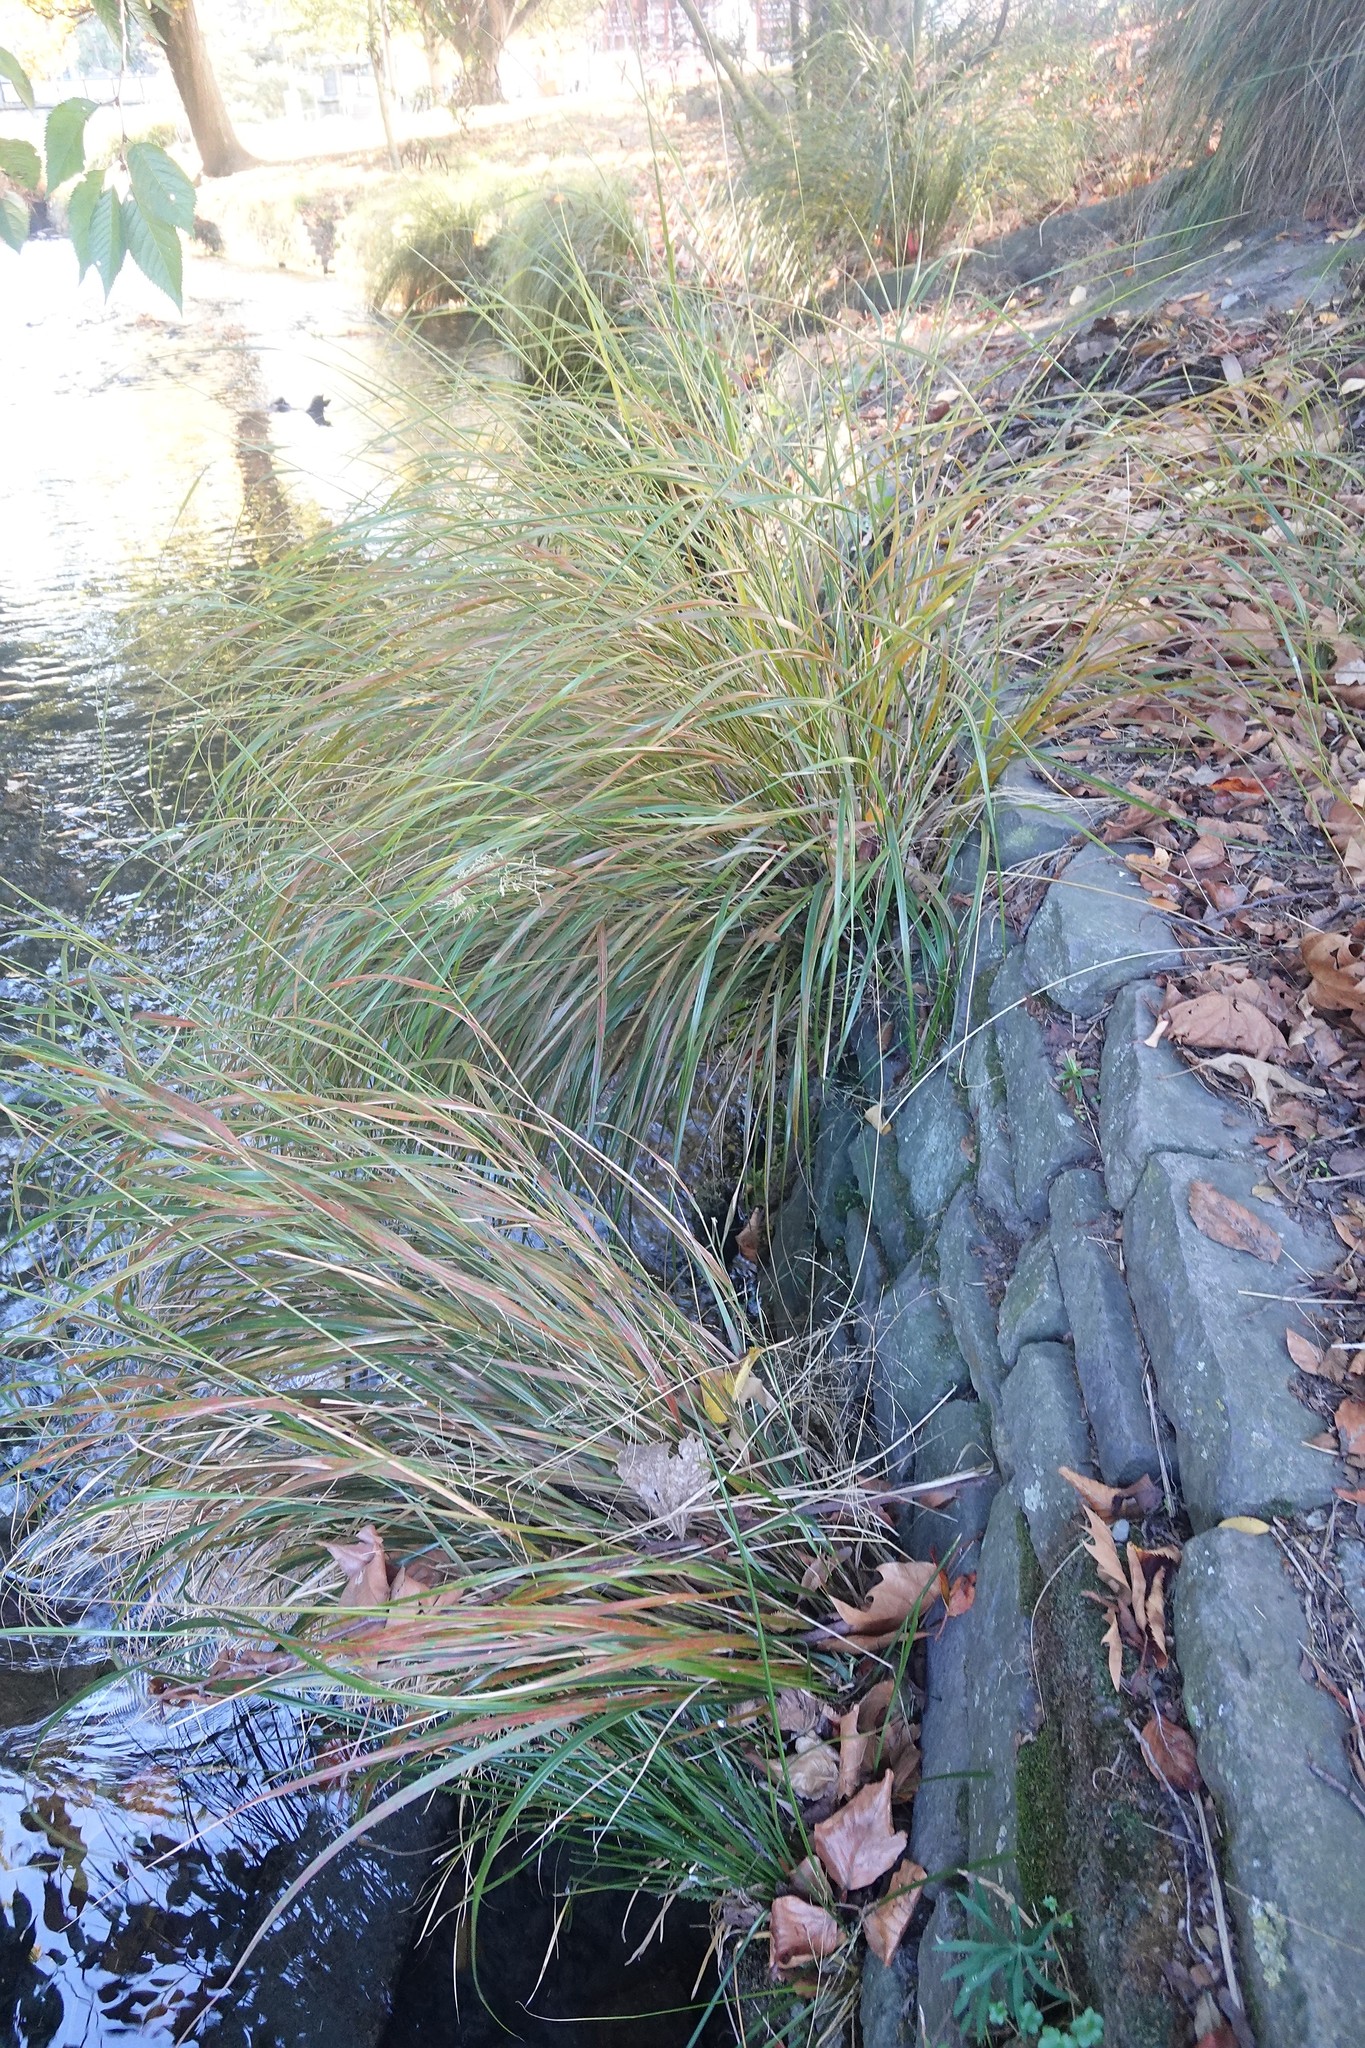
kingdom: Plantae
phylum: Tracheophyta
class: Liliopsida
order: Poales
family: Poaceae
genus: Anemanthele
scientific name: Anemanthele lessoniana
